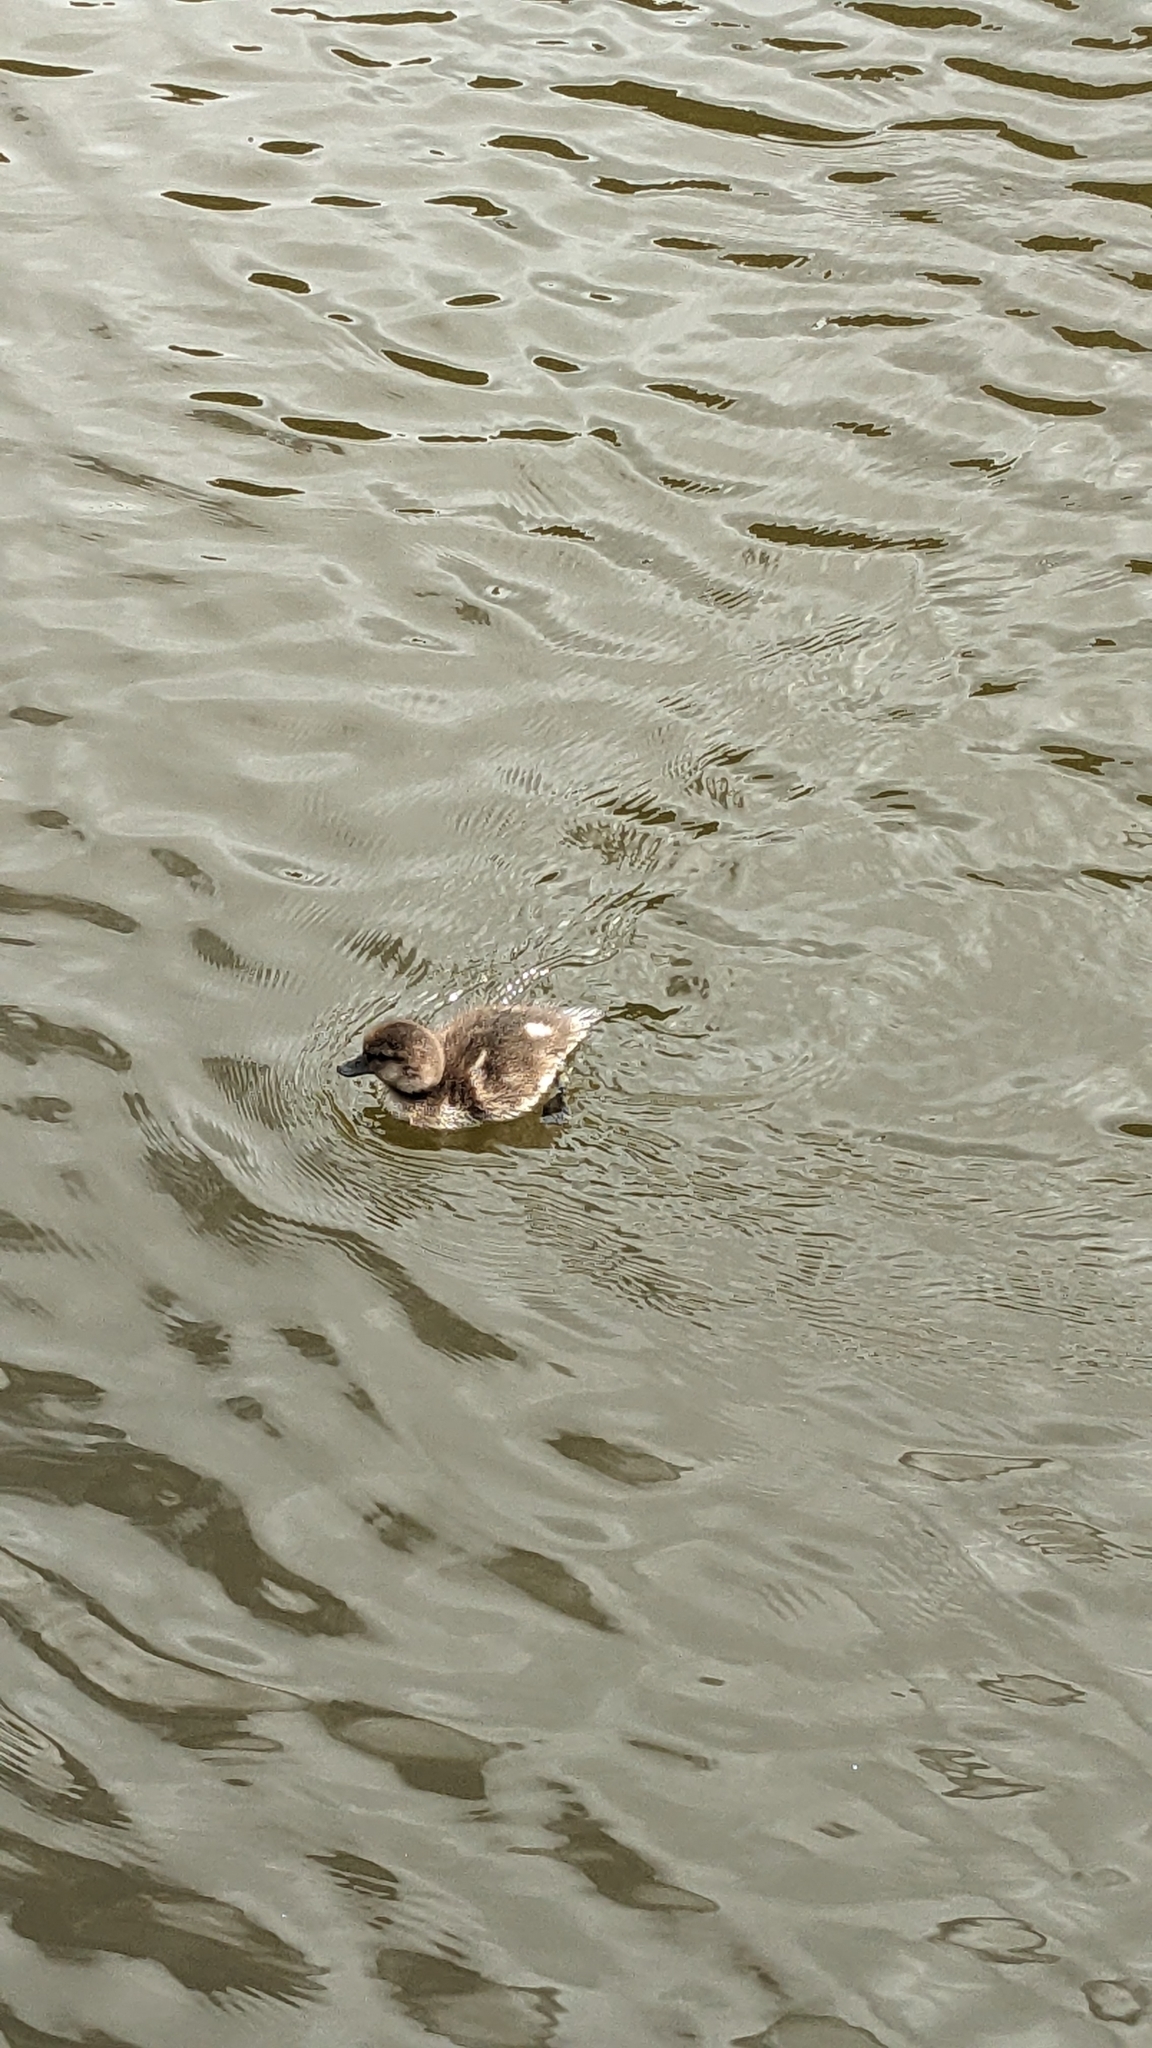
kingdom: Animalia
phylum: Chordata
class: Aves
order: Anseriformes
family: Anatidae
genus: Aythya
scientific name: Aythya novaeseelandiae
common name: New zealand scaup
